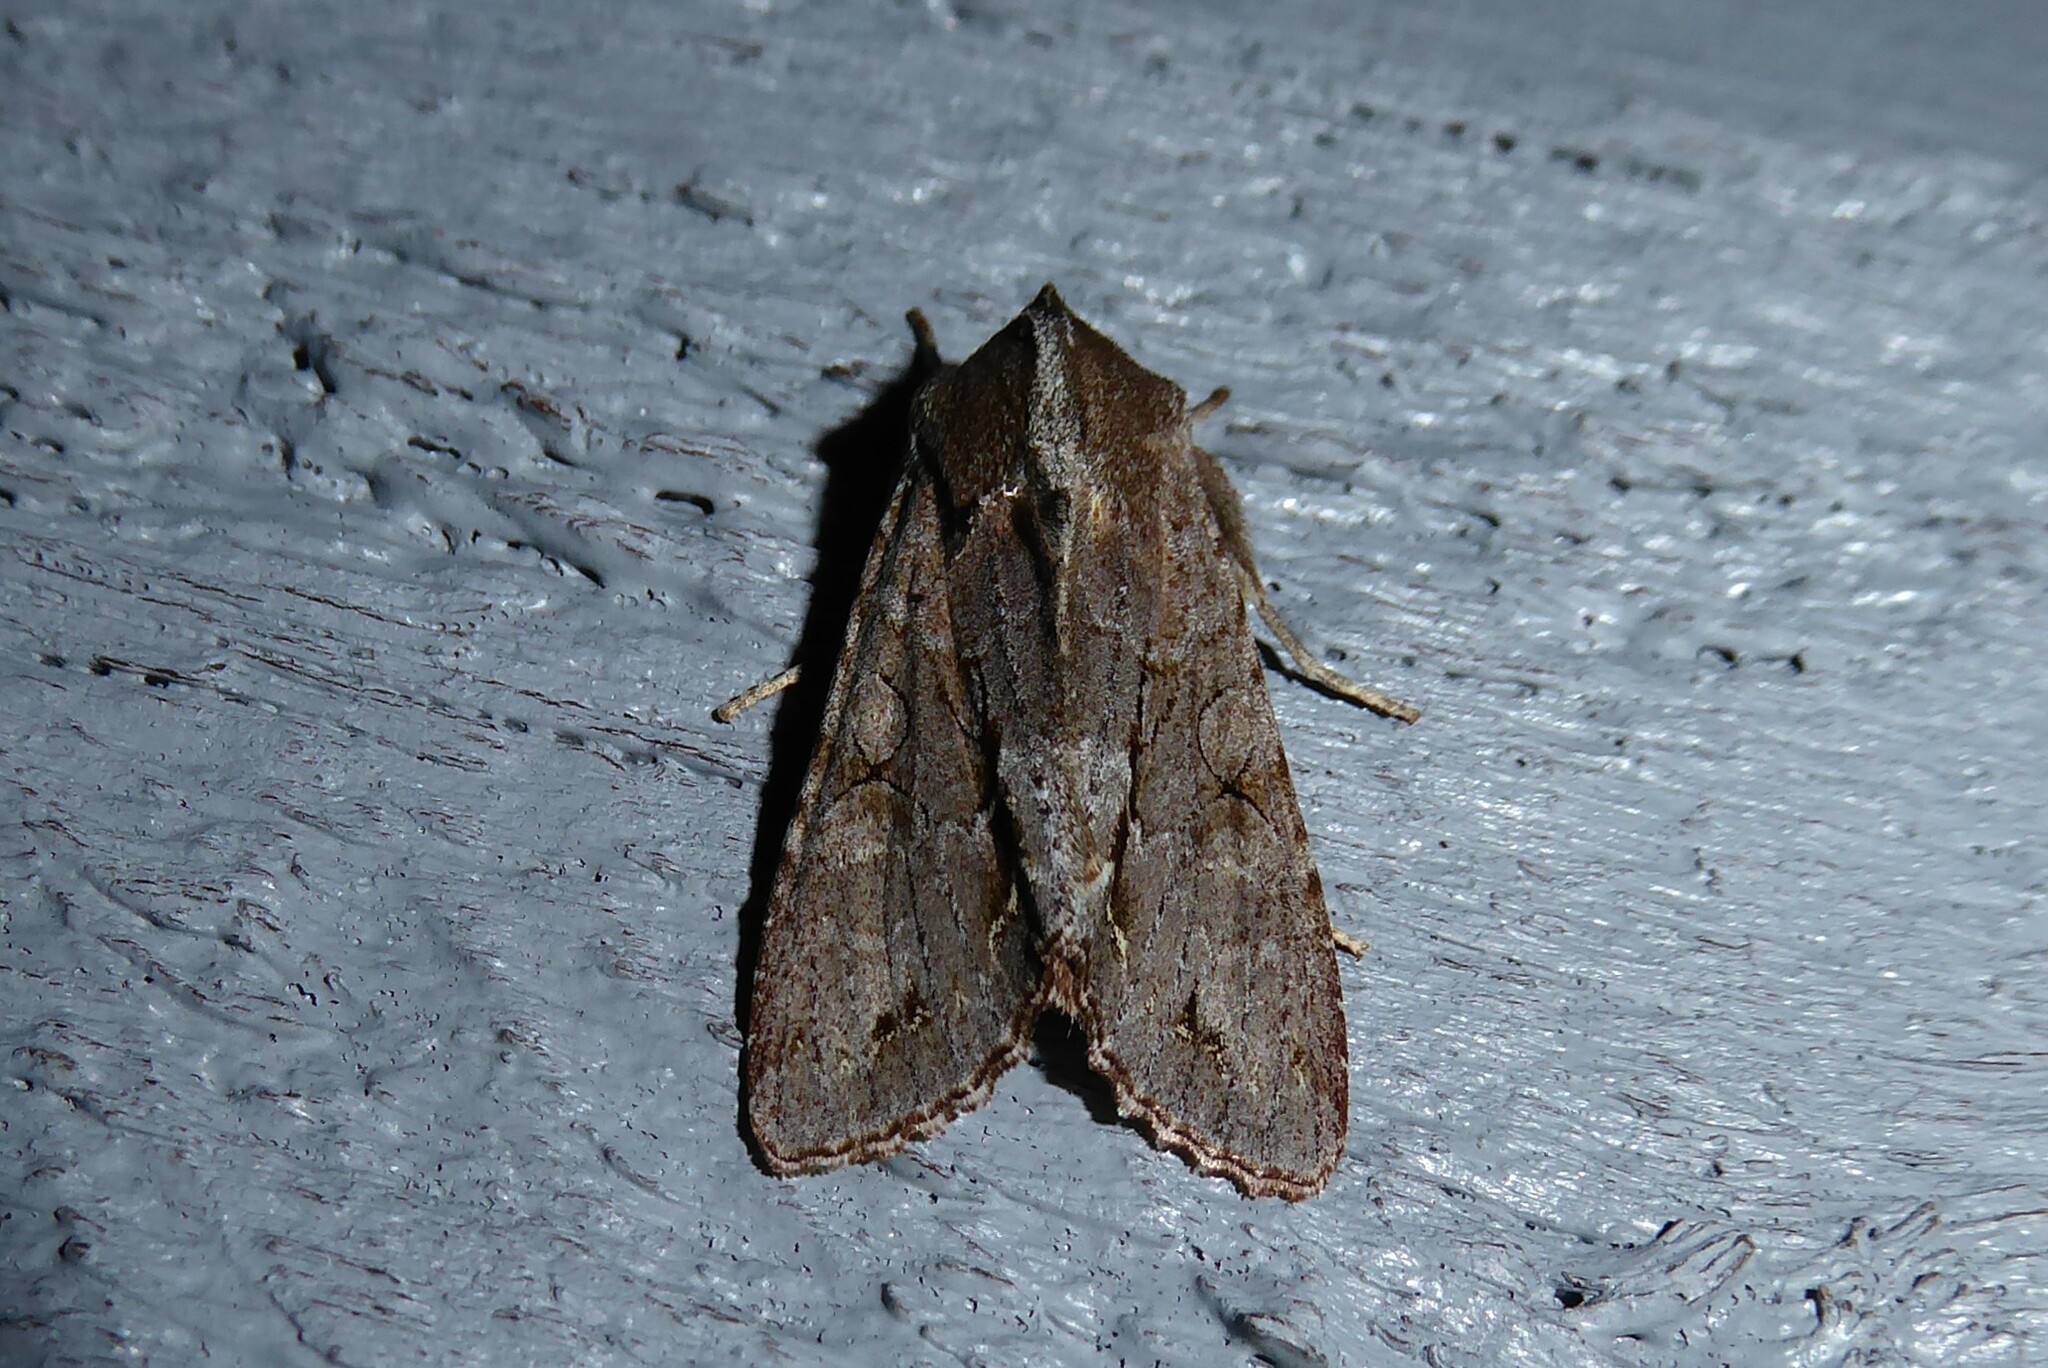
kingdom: Animalia
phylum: Arthropoda
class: Insecta
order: Lepidoptera
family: Noctuidae
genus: Ichneutica
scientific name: Ichneutica
